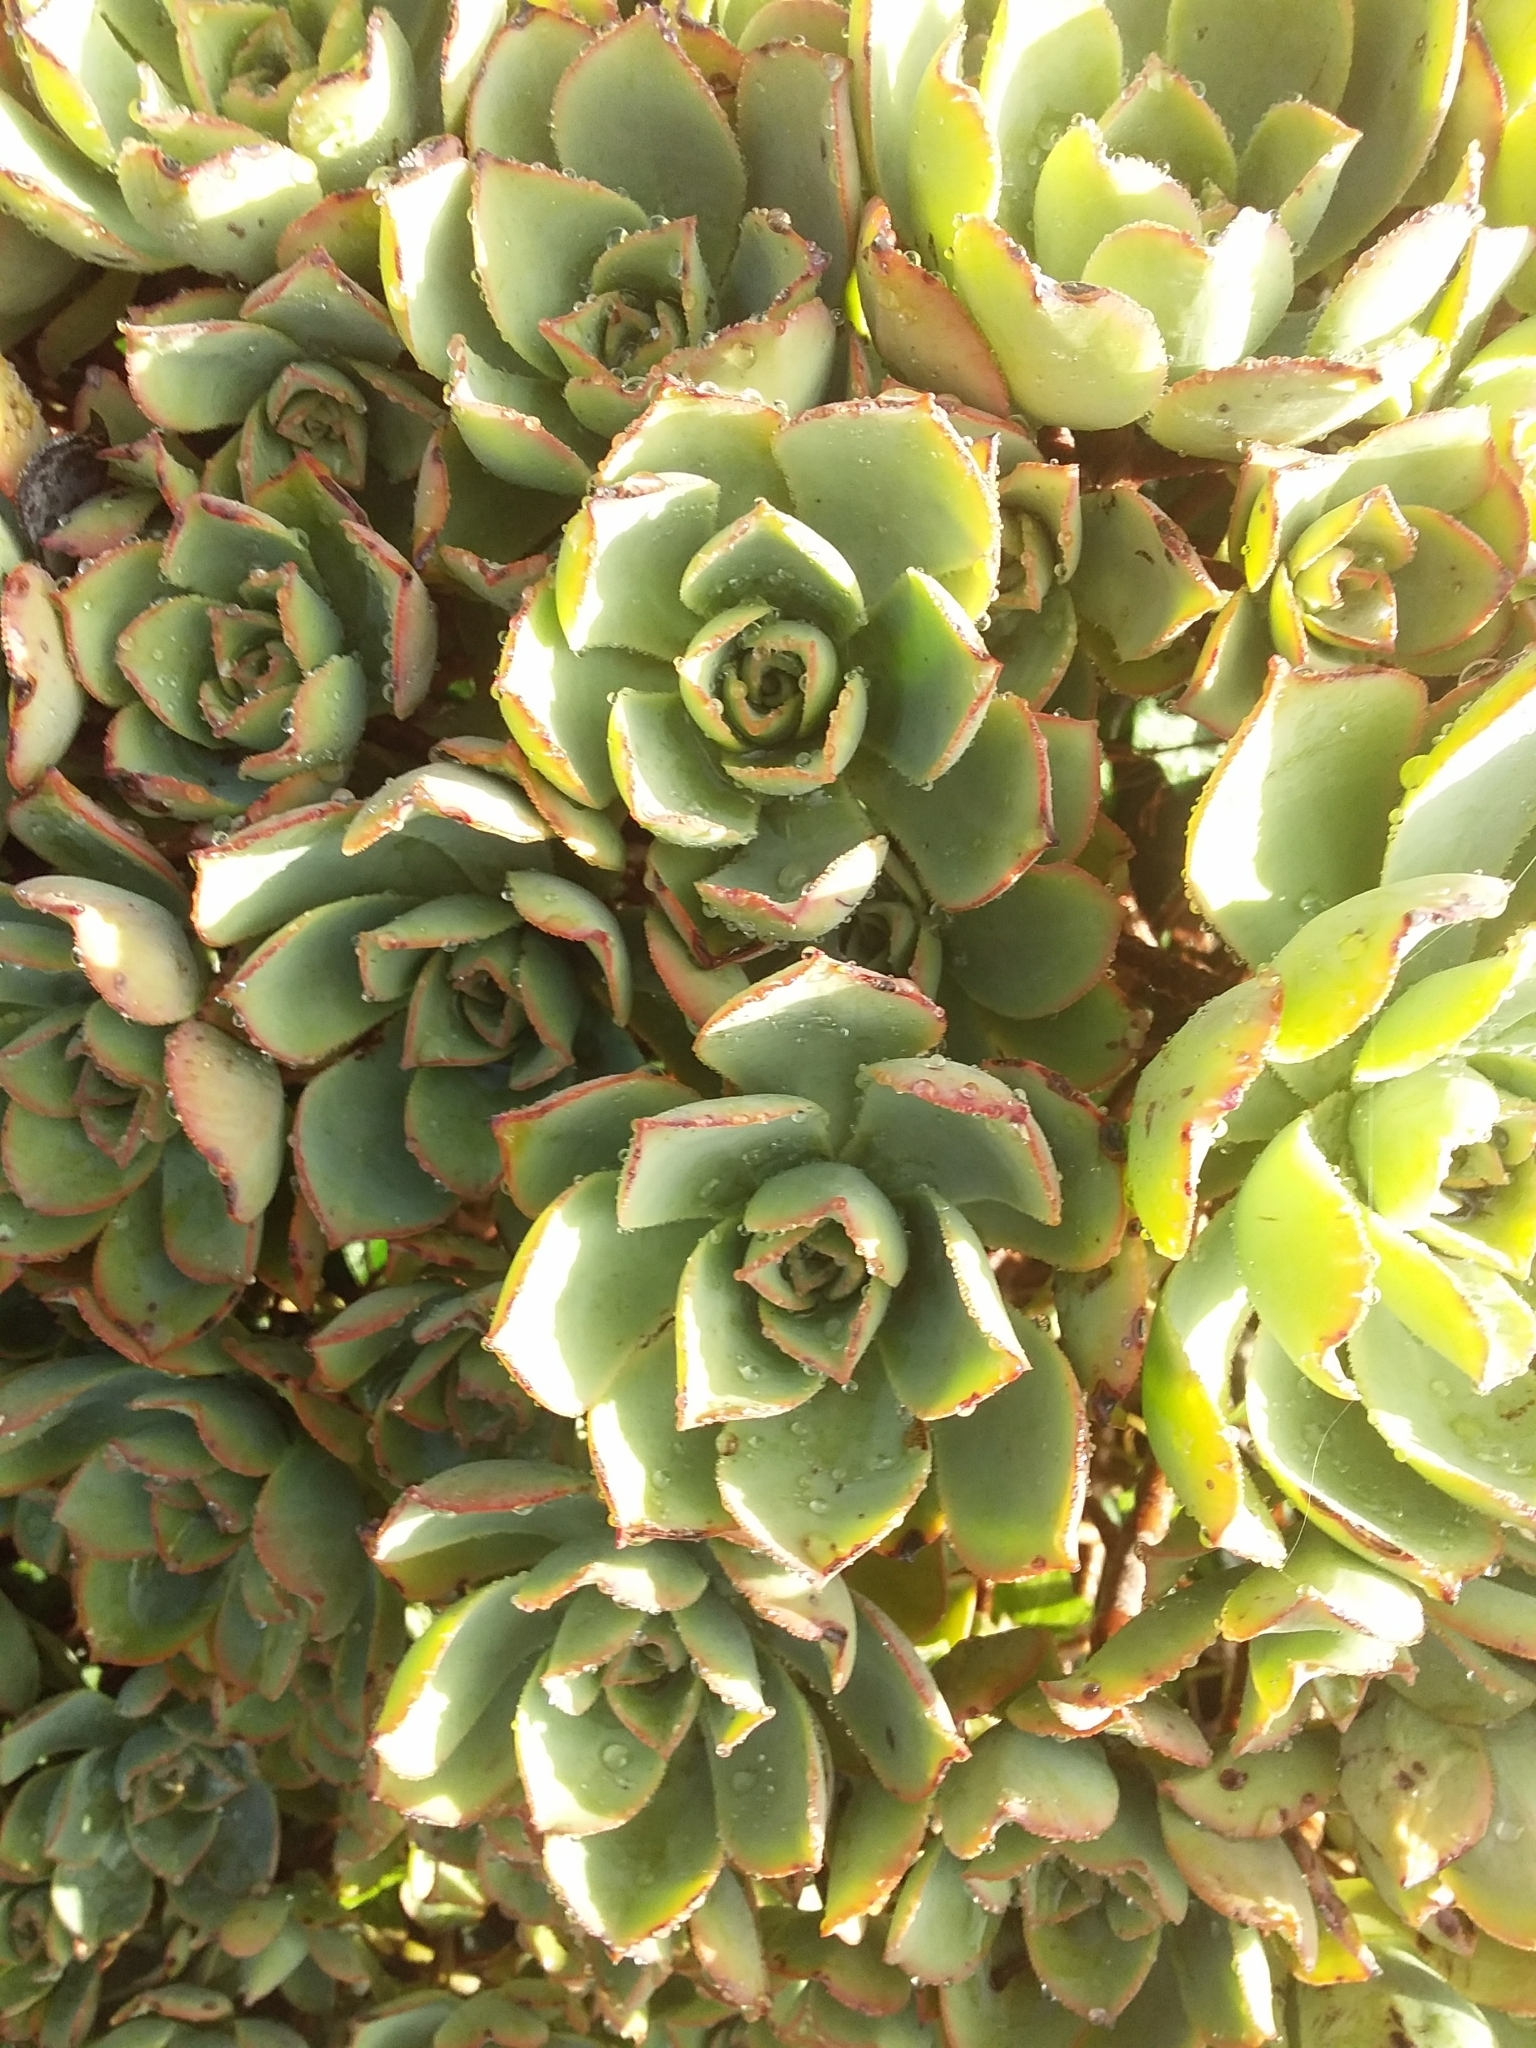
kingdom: Plantae
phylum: Tracheophyta
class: Magnoliopsida
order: Saxifragales
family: Crassulaceae
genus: Aeonium
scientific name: Aeonium haworthii
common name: Haworth's aeonium
